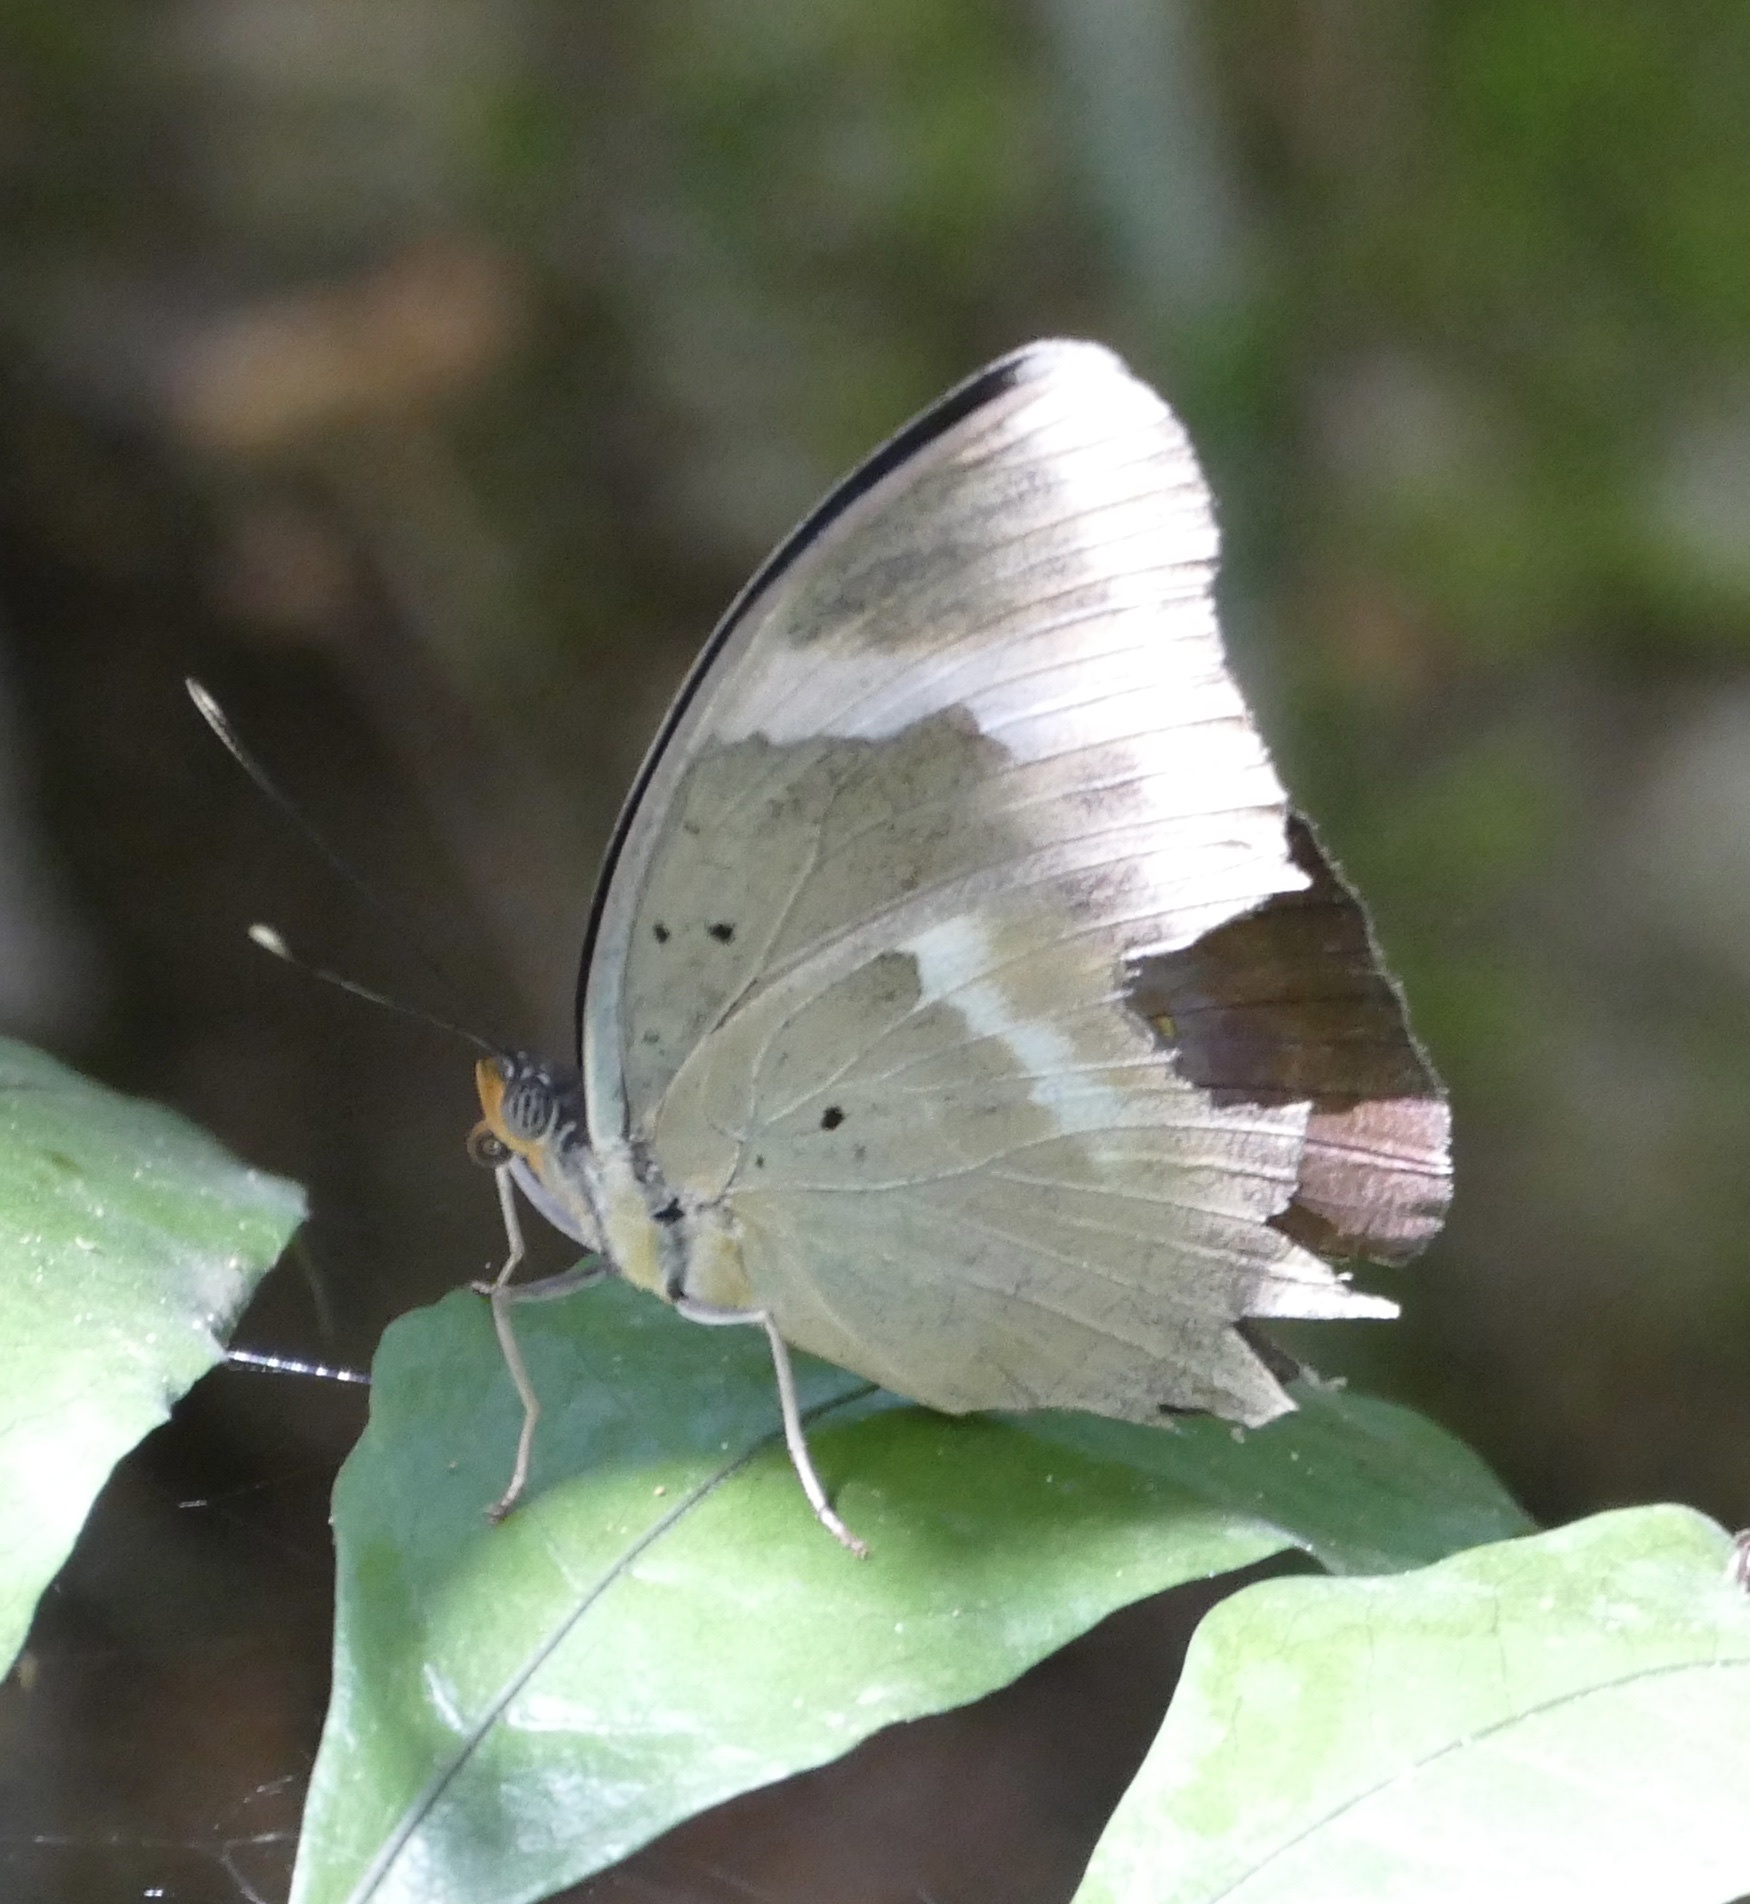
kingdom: Animalia
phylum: Arthropoda
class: Insecta
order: Lepidoptera
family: Nymphalidae
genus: Euphaedra
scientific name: Euphaedra medon
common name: Widespread forester
